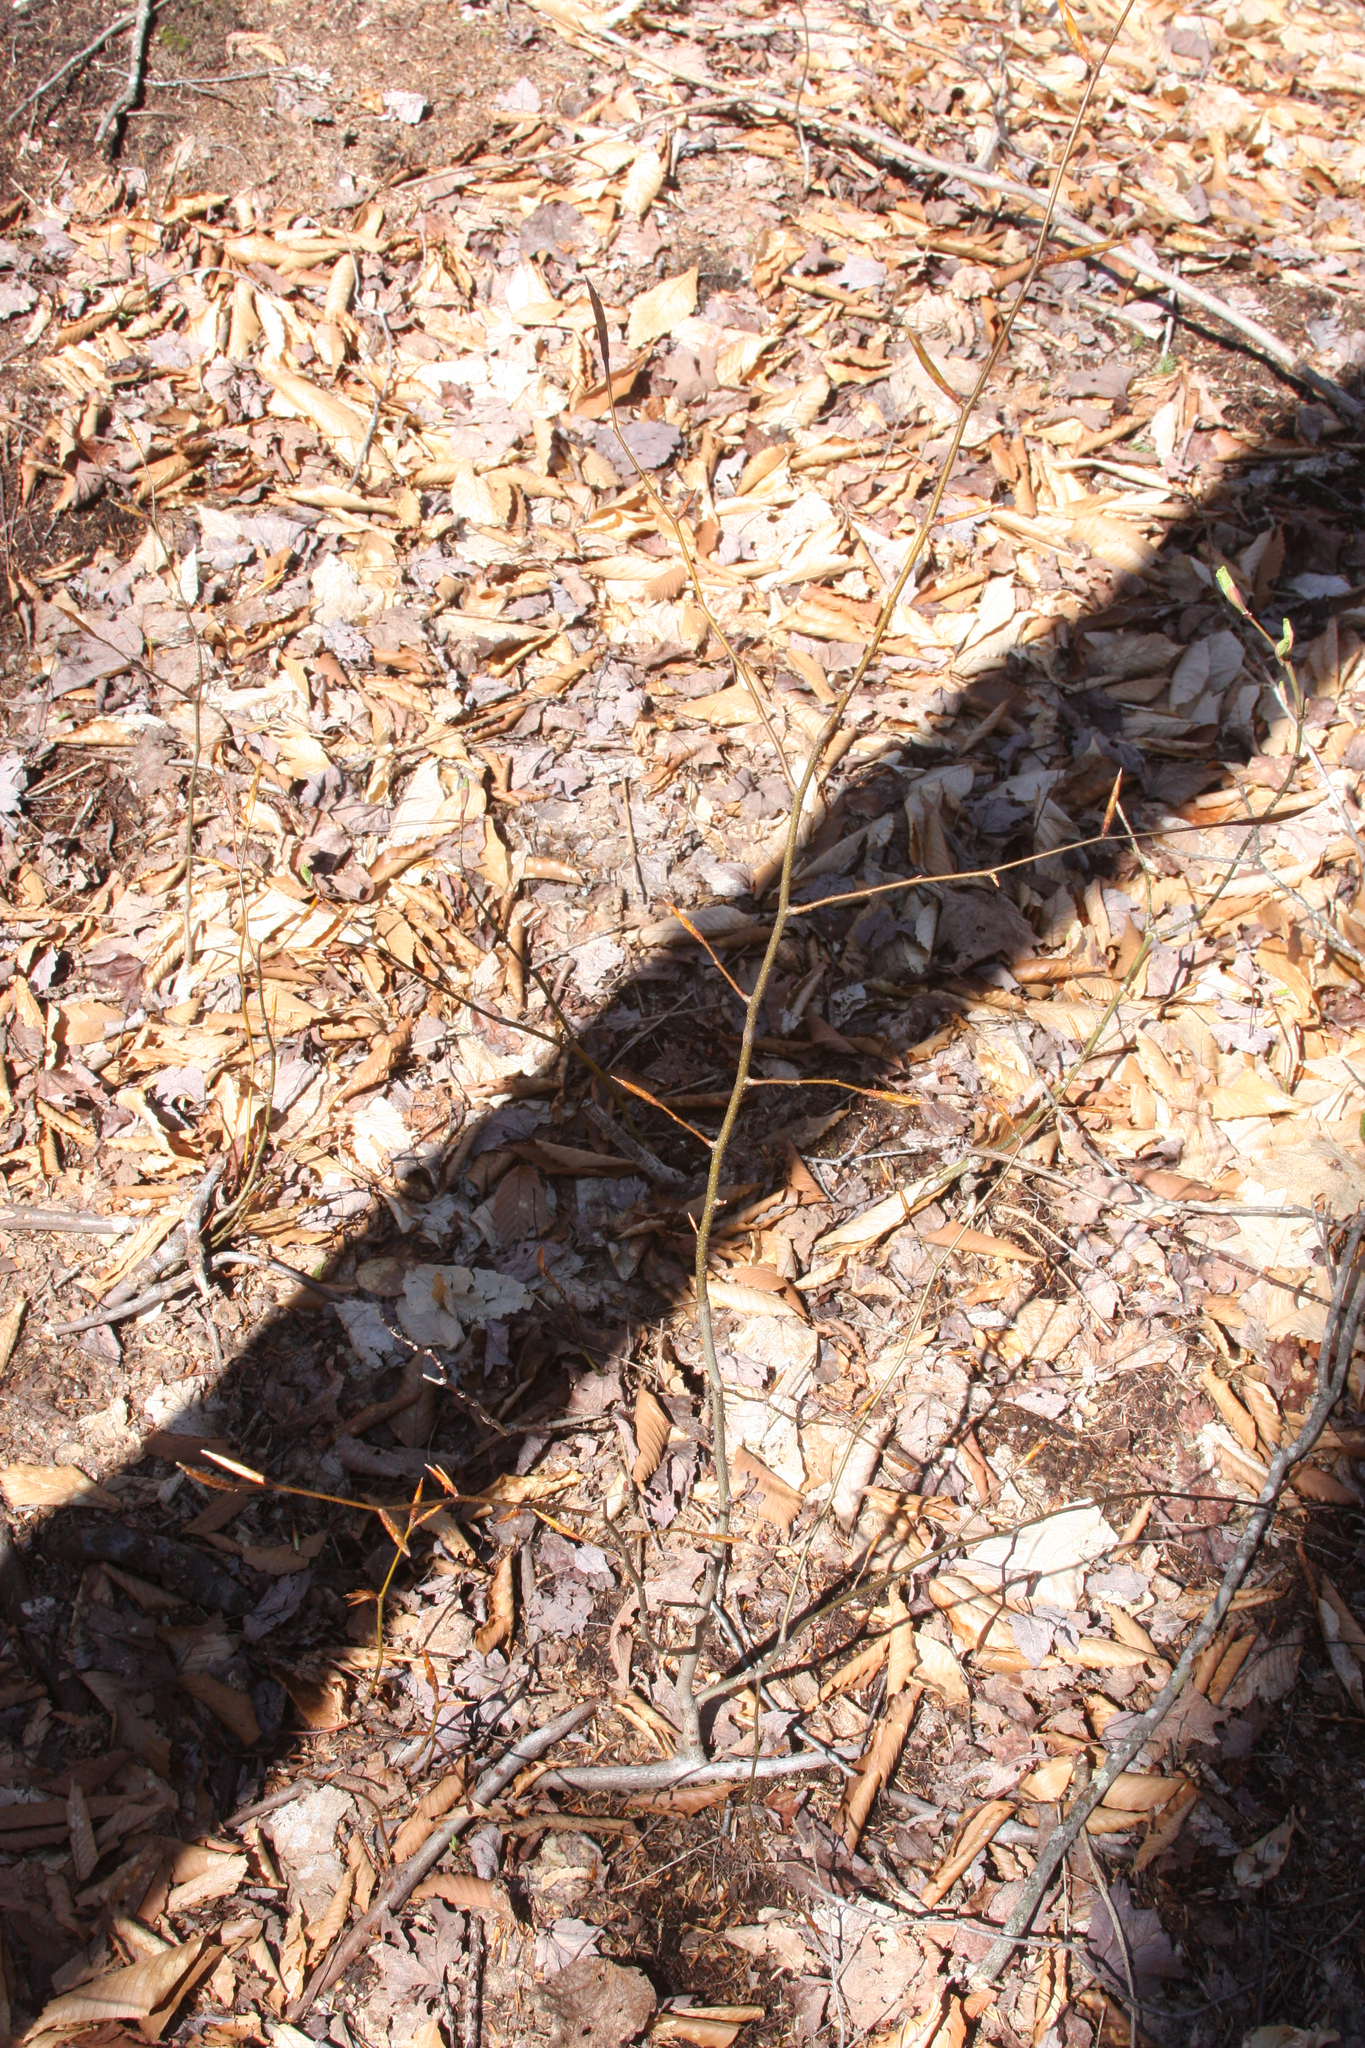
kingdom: Plantae
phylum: Tracheophyta
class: Magnoliopsida
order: Fagales
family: Fagaceae
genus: Fagus
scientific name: Fagus grandifolia
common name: American beech
